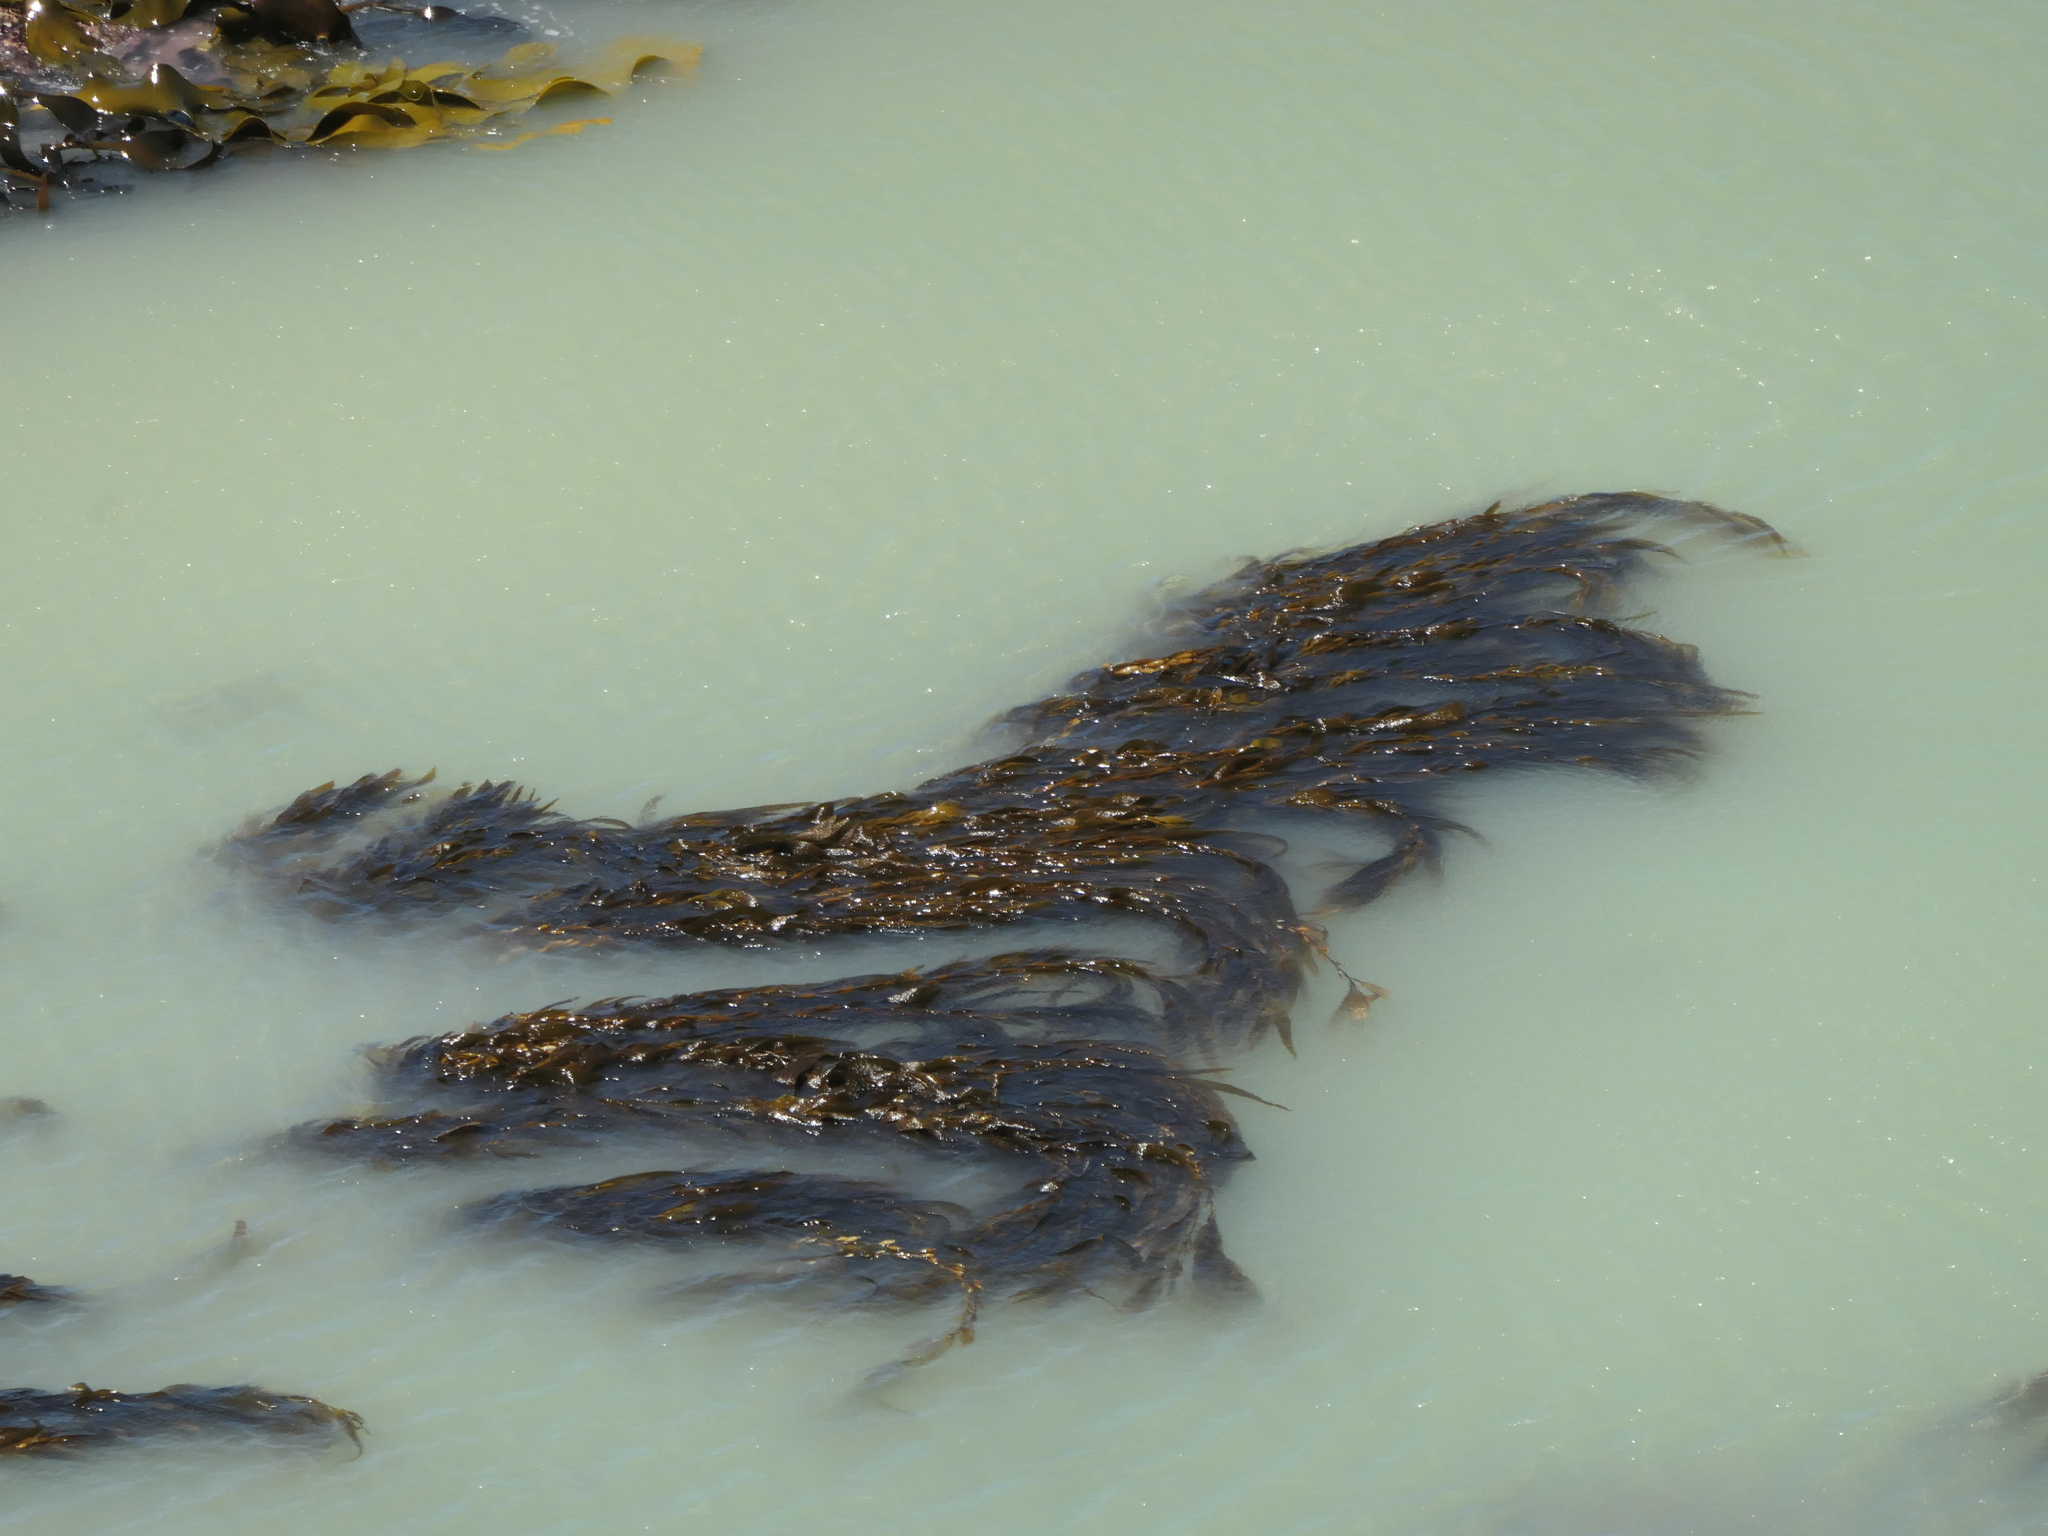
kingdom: Chromista
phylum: Ochrophyta
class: Phaeophyceae
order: Laminariales
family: Laminariaceae
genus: Macrocystis
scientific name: Macrocystis pyrifera
